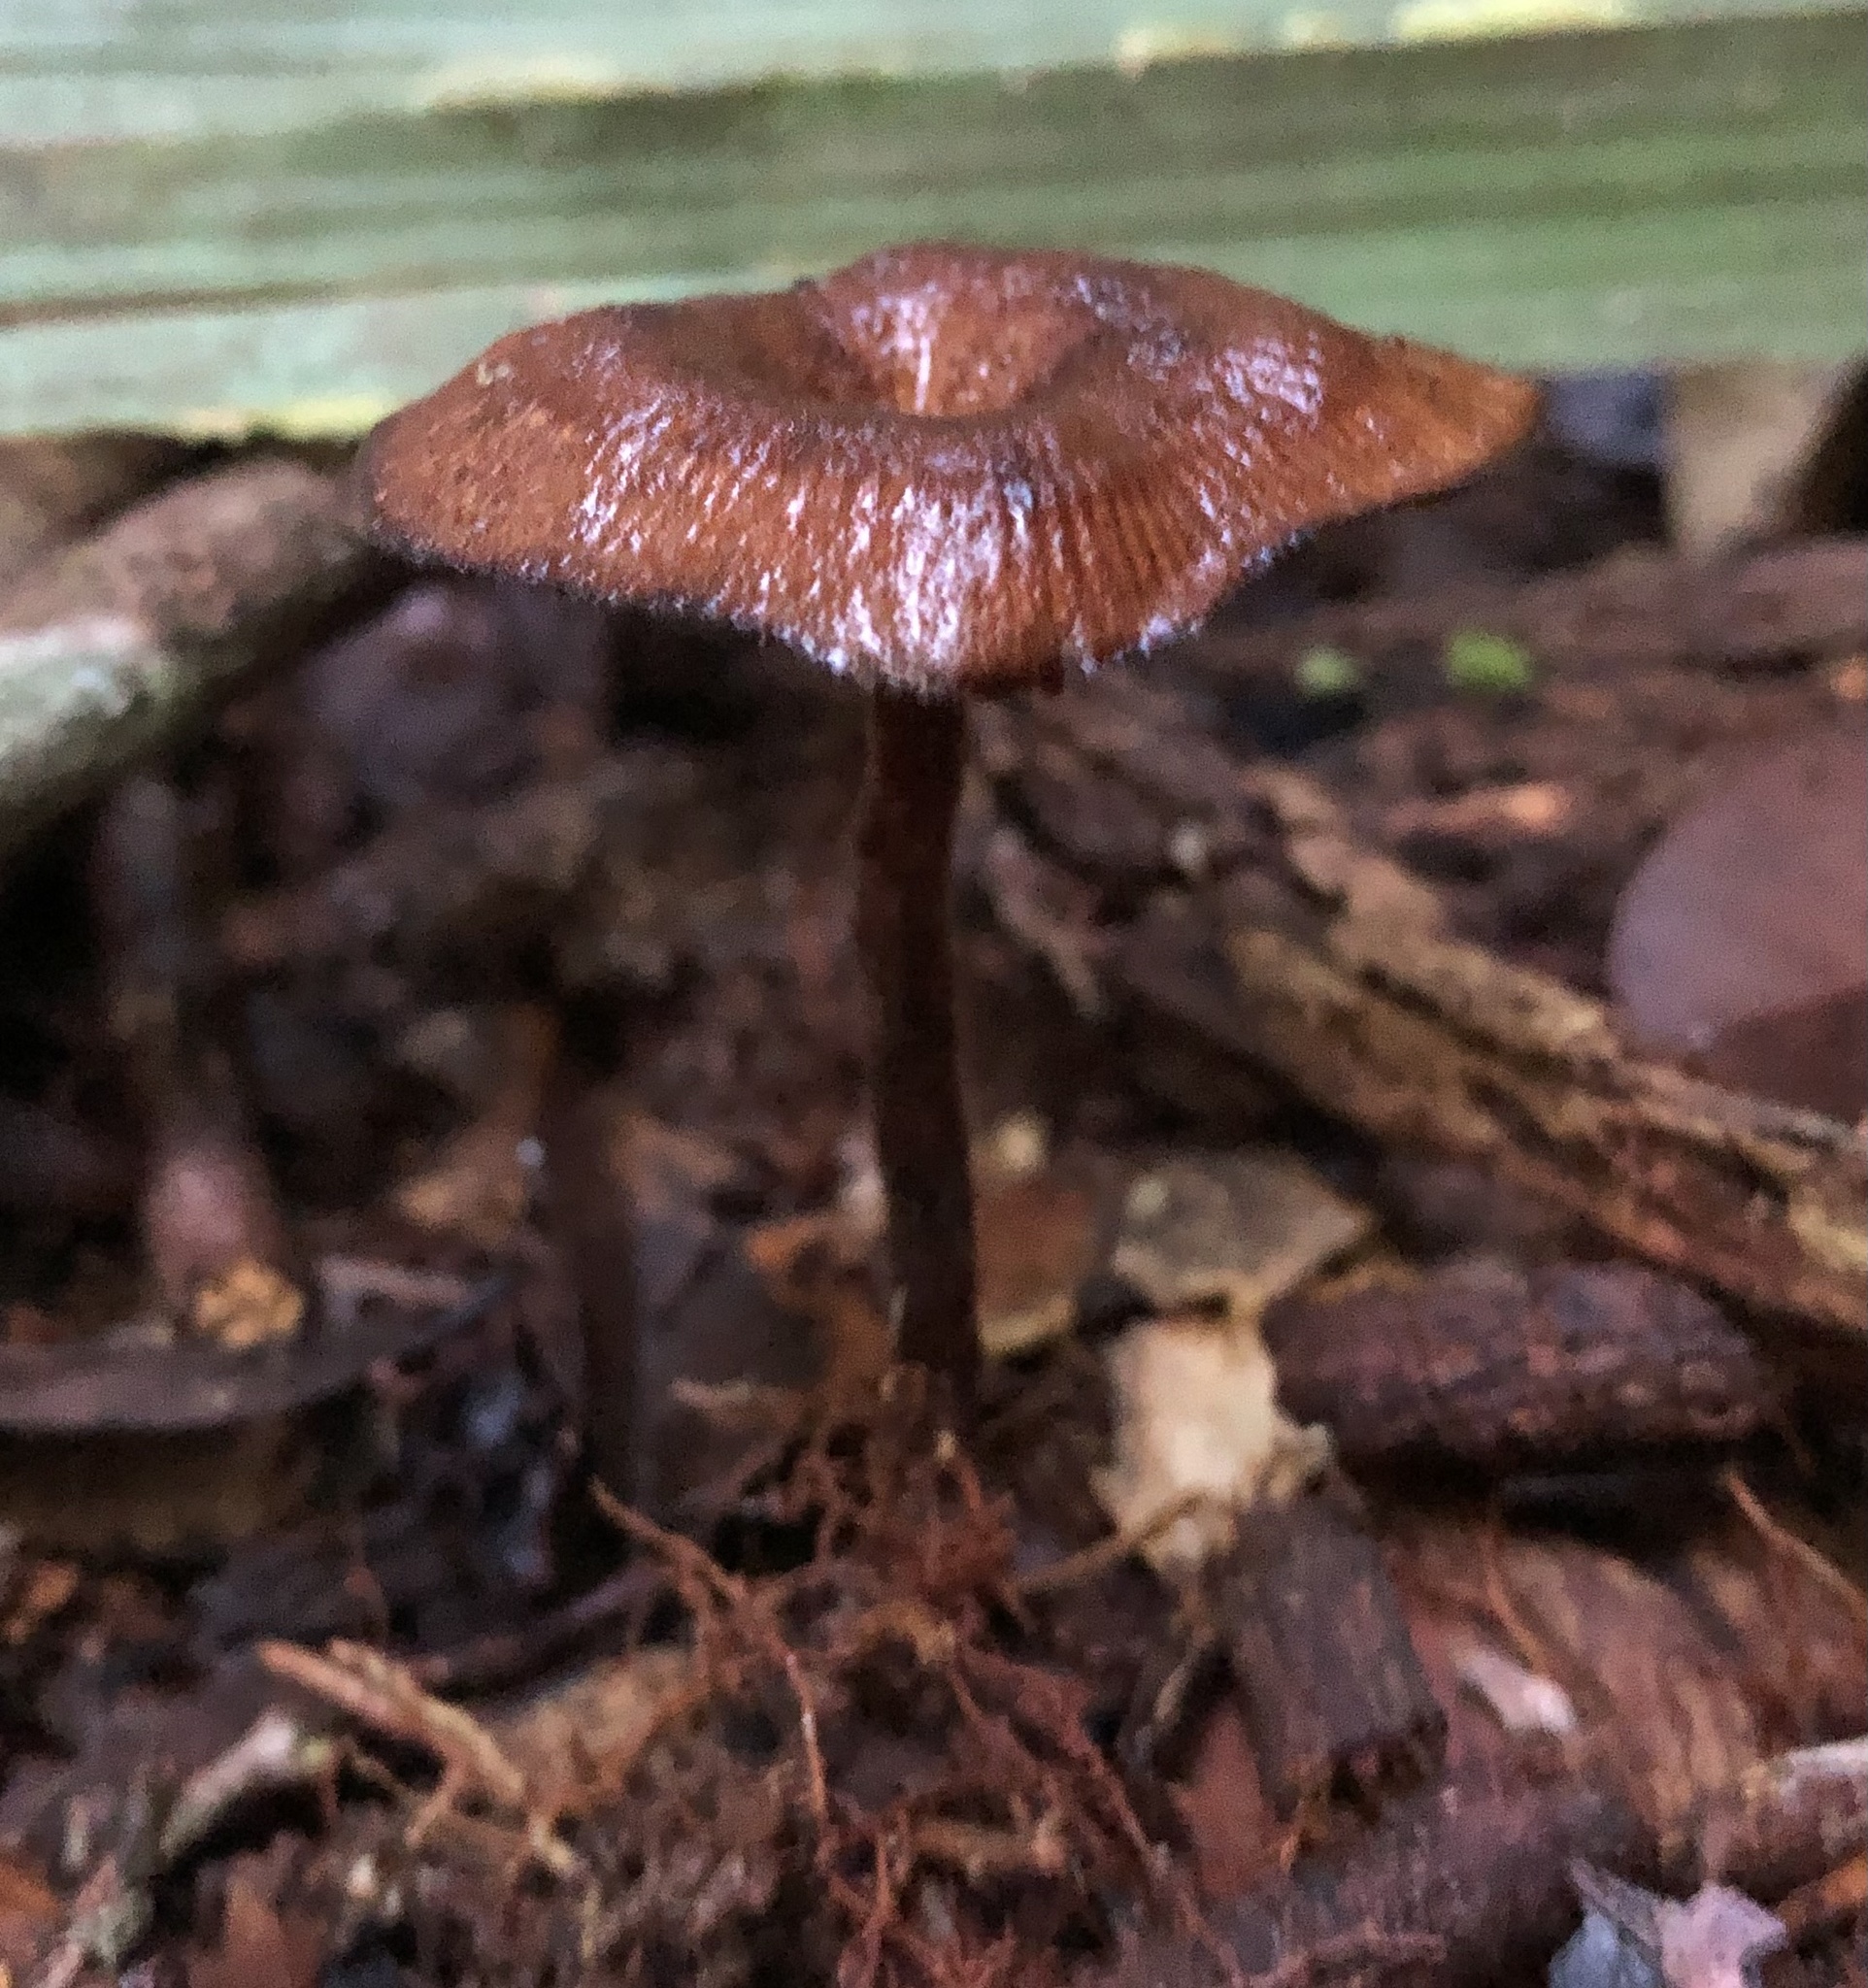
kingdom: Fungi
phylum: Basidiomycota
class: Agaricomycetes
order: Polyporales
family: Panaceae
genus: Panus
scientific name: Panus
